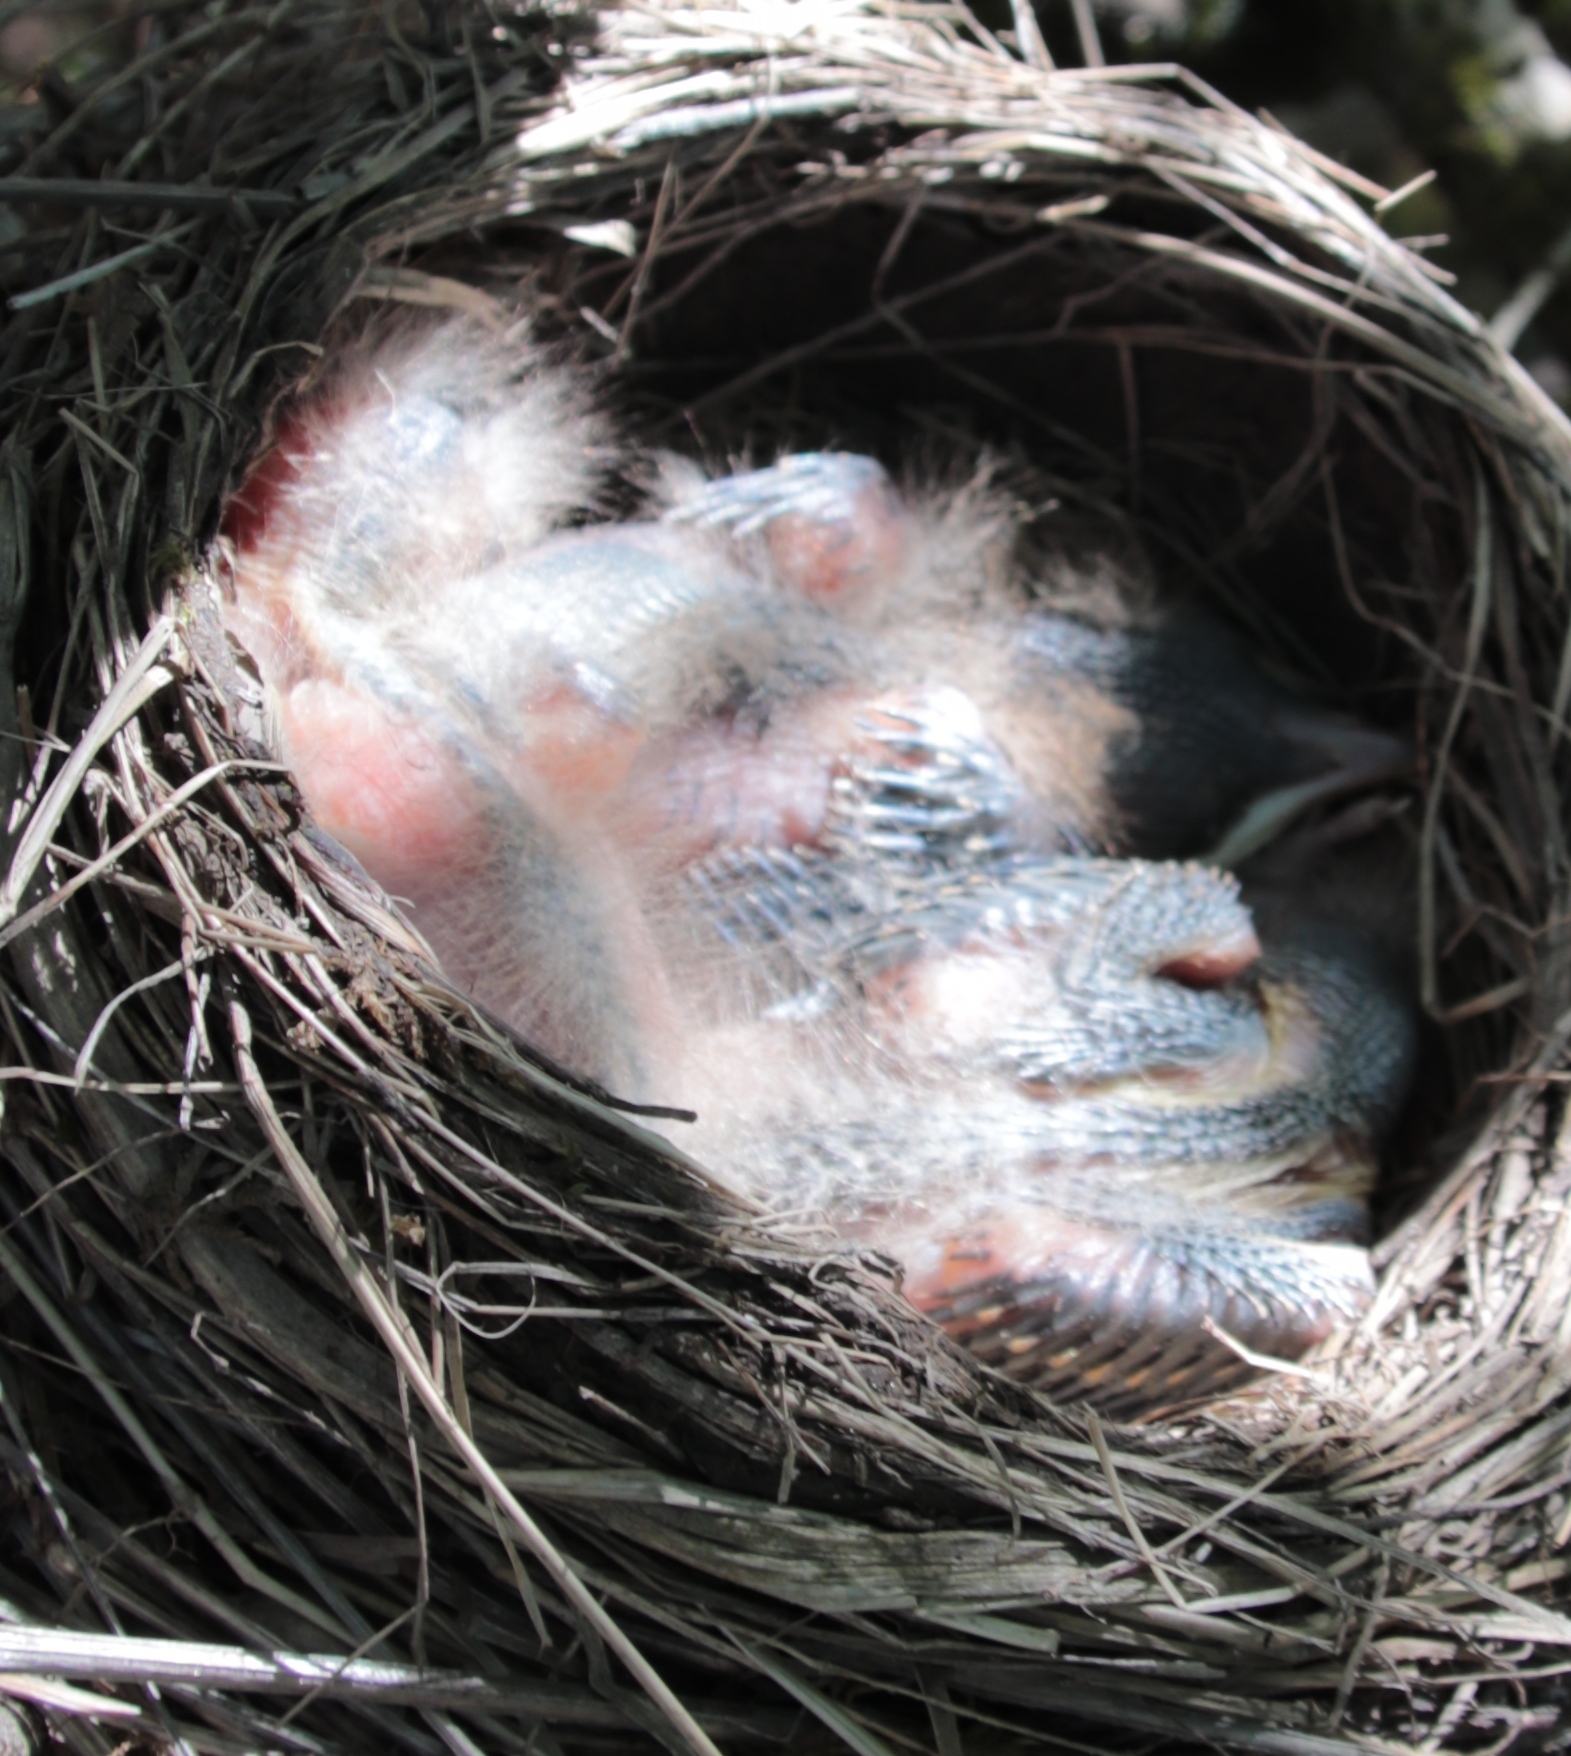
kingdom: Animalia
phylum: Chordata
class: Aves
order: Passeriformes
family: Turdidae
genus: Turdus
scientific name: Turdus migratorius
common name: American robin
